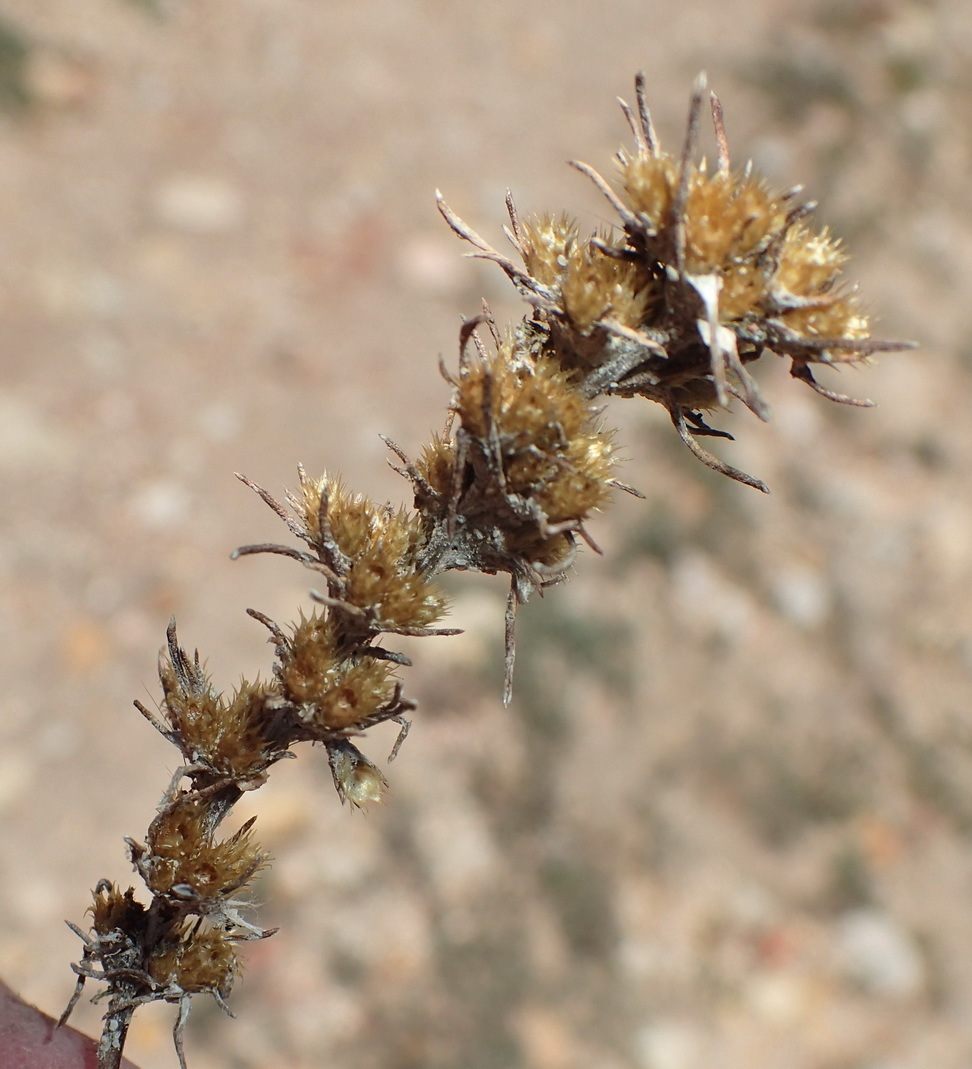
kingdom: Plantae
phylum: Tracheophyta
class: Magnoliopsida
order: Asterales
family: Asteraceae
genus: Ifloga
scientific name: Ifloga glomerata
